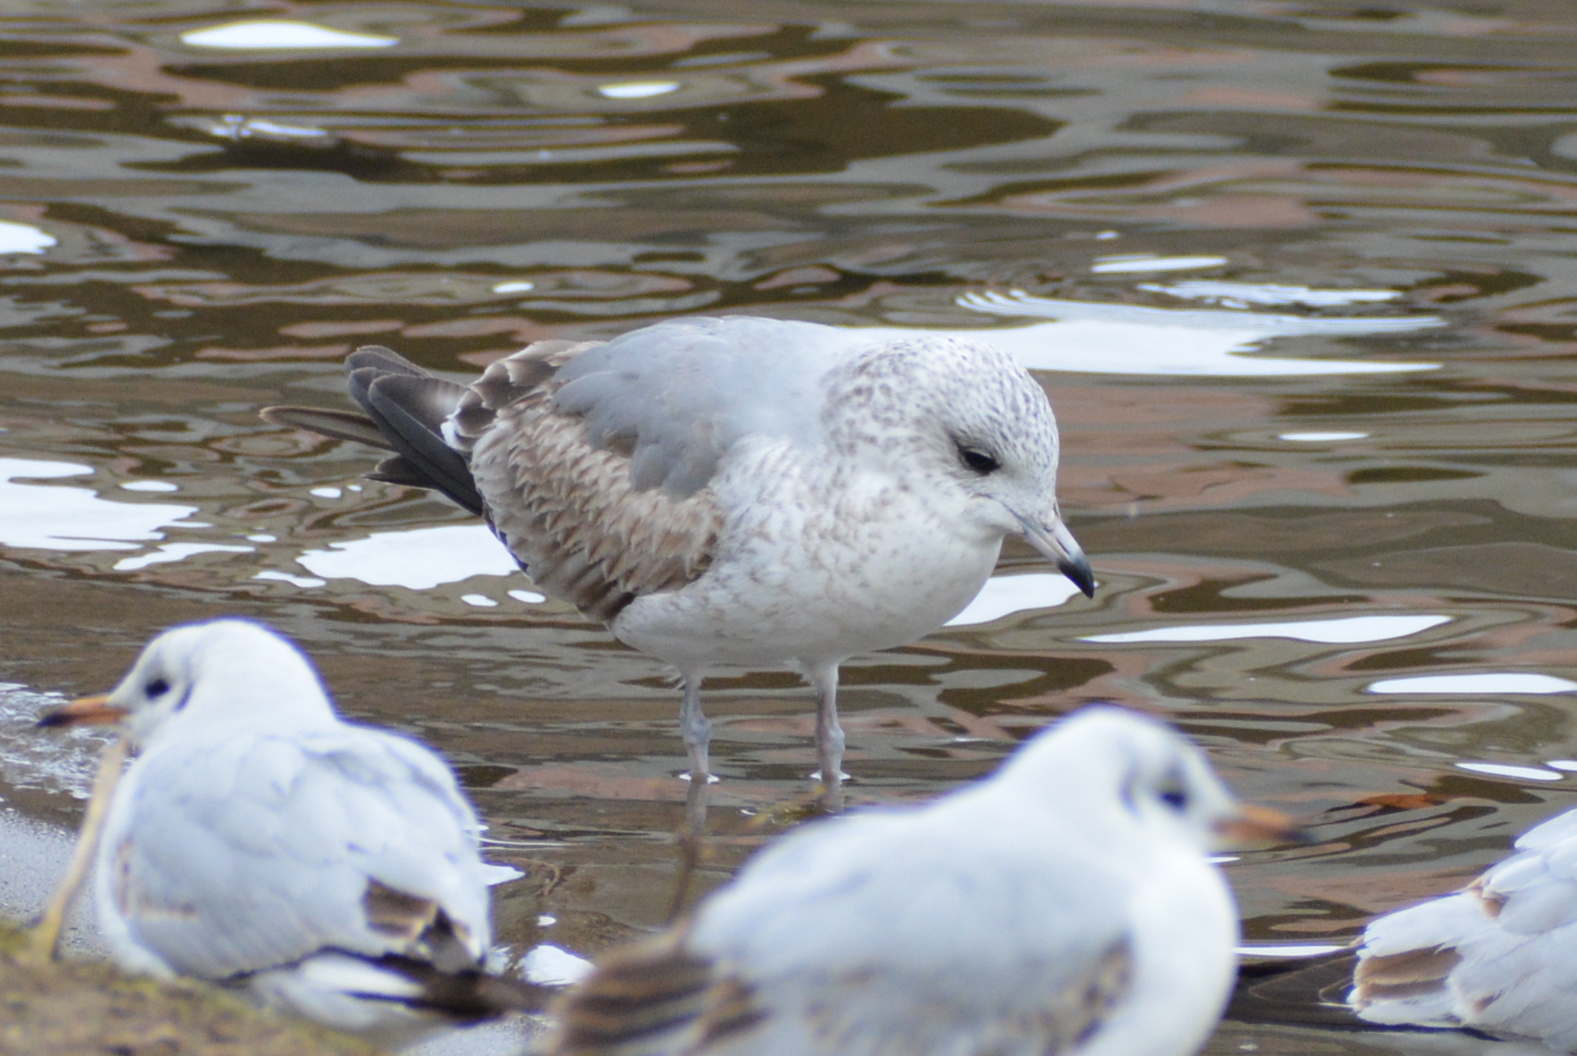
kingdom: Animalia
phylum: Chordata
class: Aves
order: Charadriiformes
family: Laridae
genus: Larus
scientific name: Larus canus
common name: Mew gull
